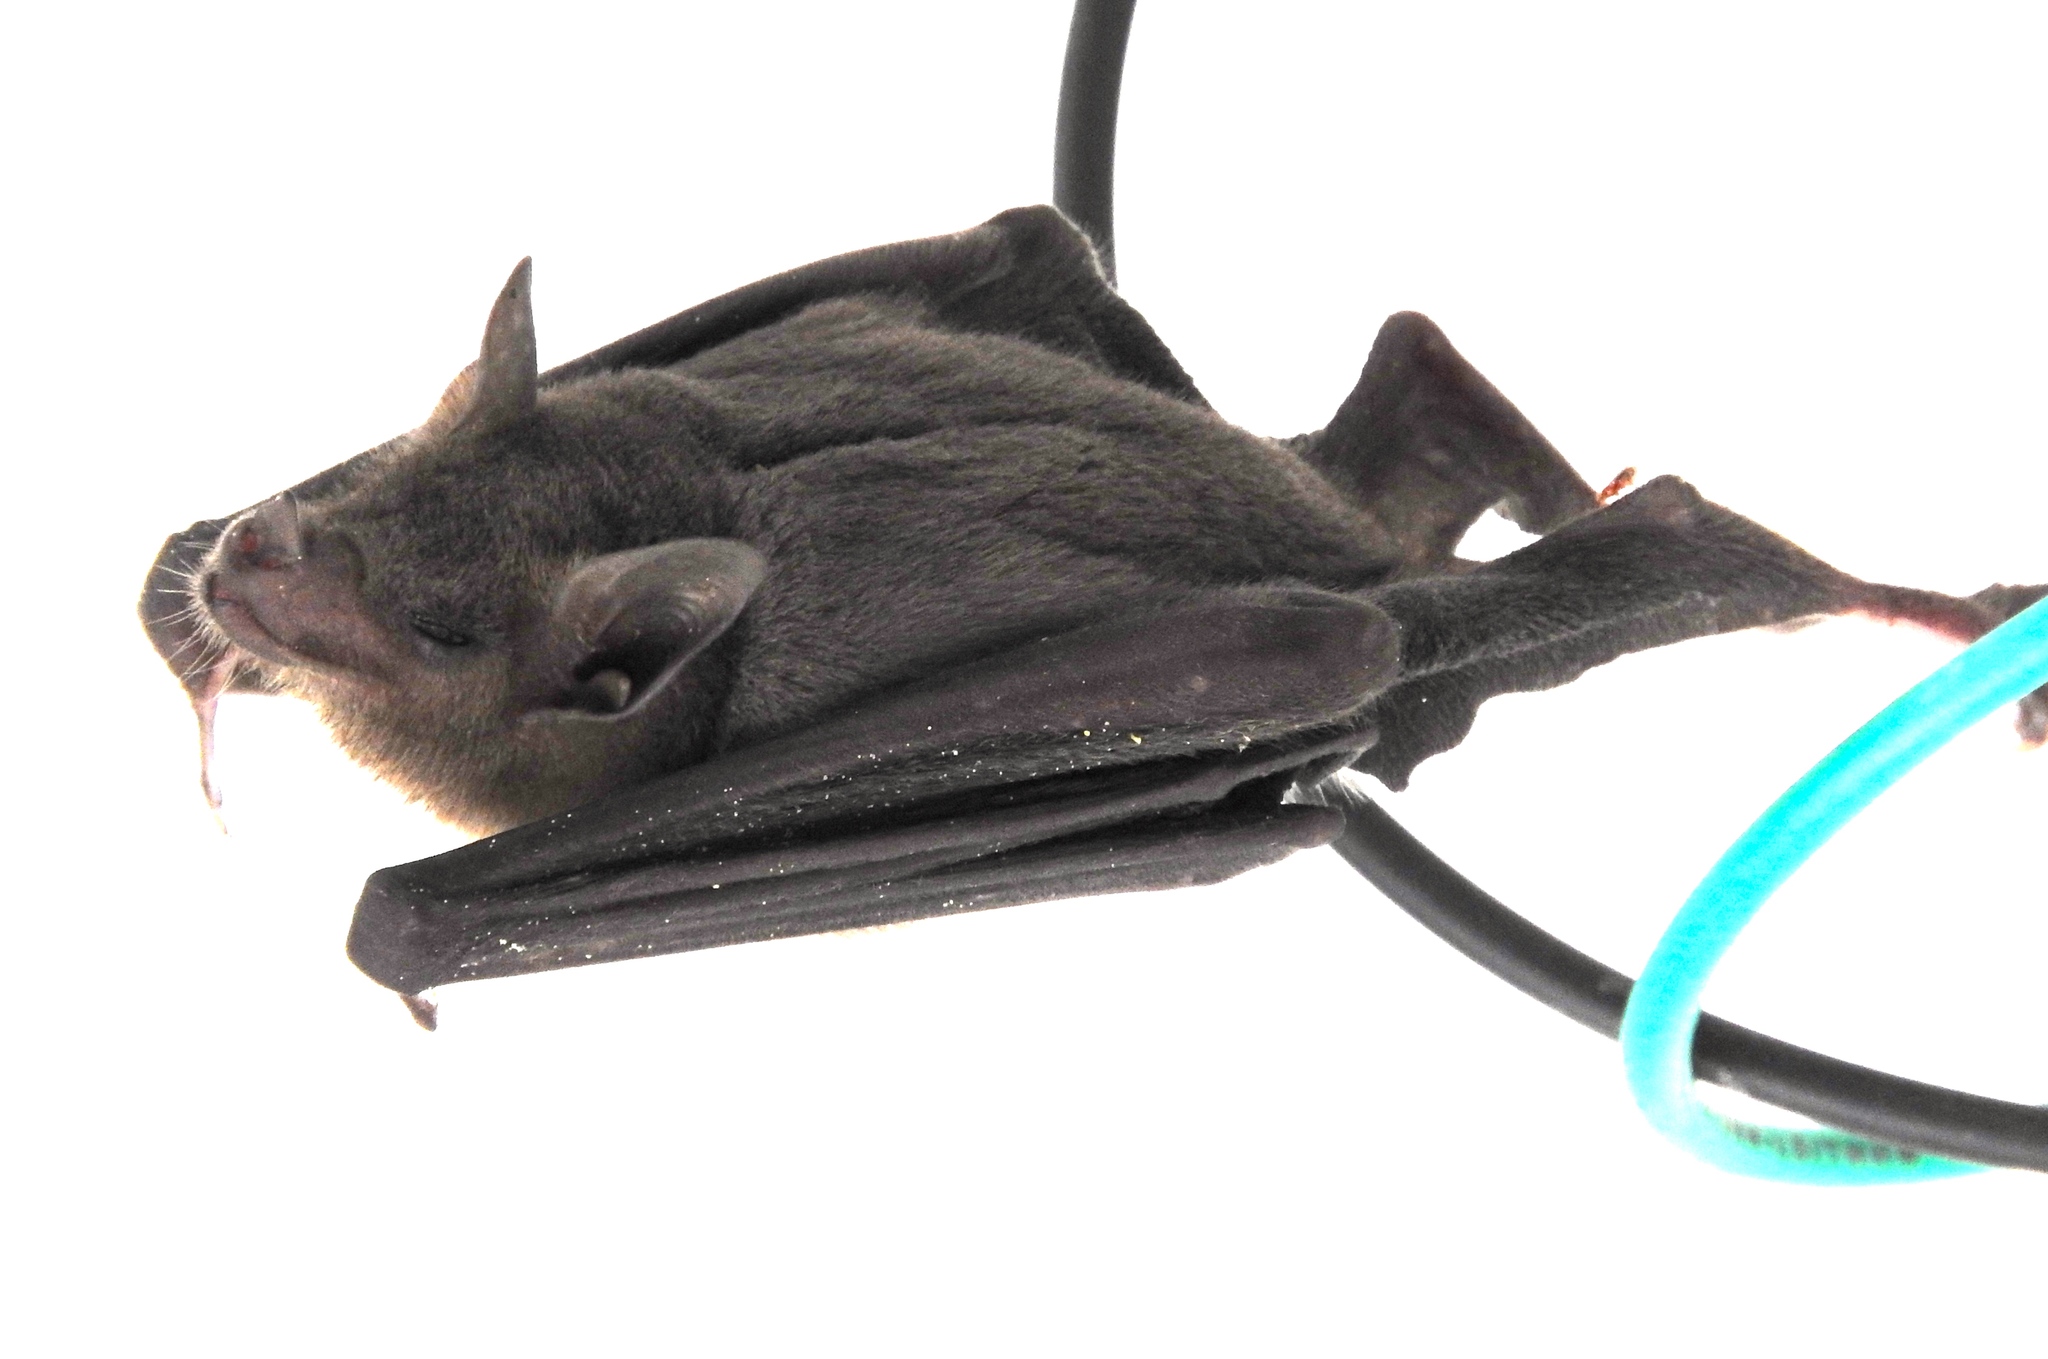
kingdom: Animalia
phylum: Chordata
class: Mammalia
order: Chiroptera
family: Phyllostomidae
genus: Leptonycteris
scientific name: Leptonycteris yerbabuenae
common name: Lesser long-nosed bat
